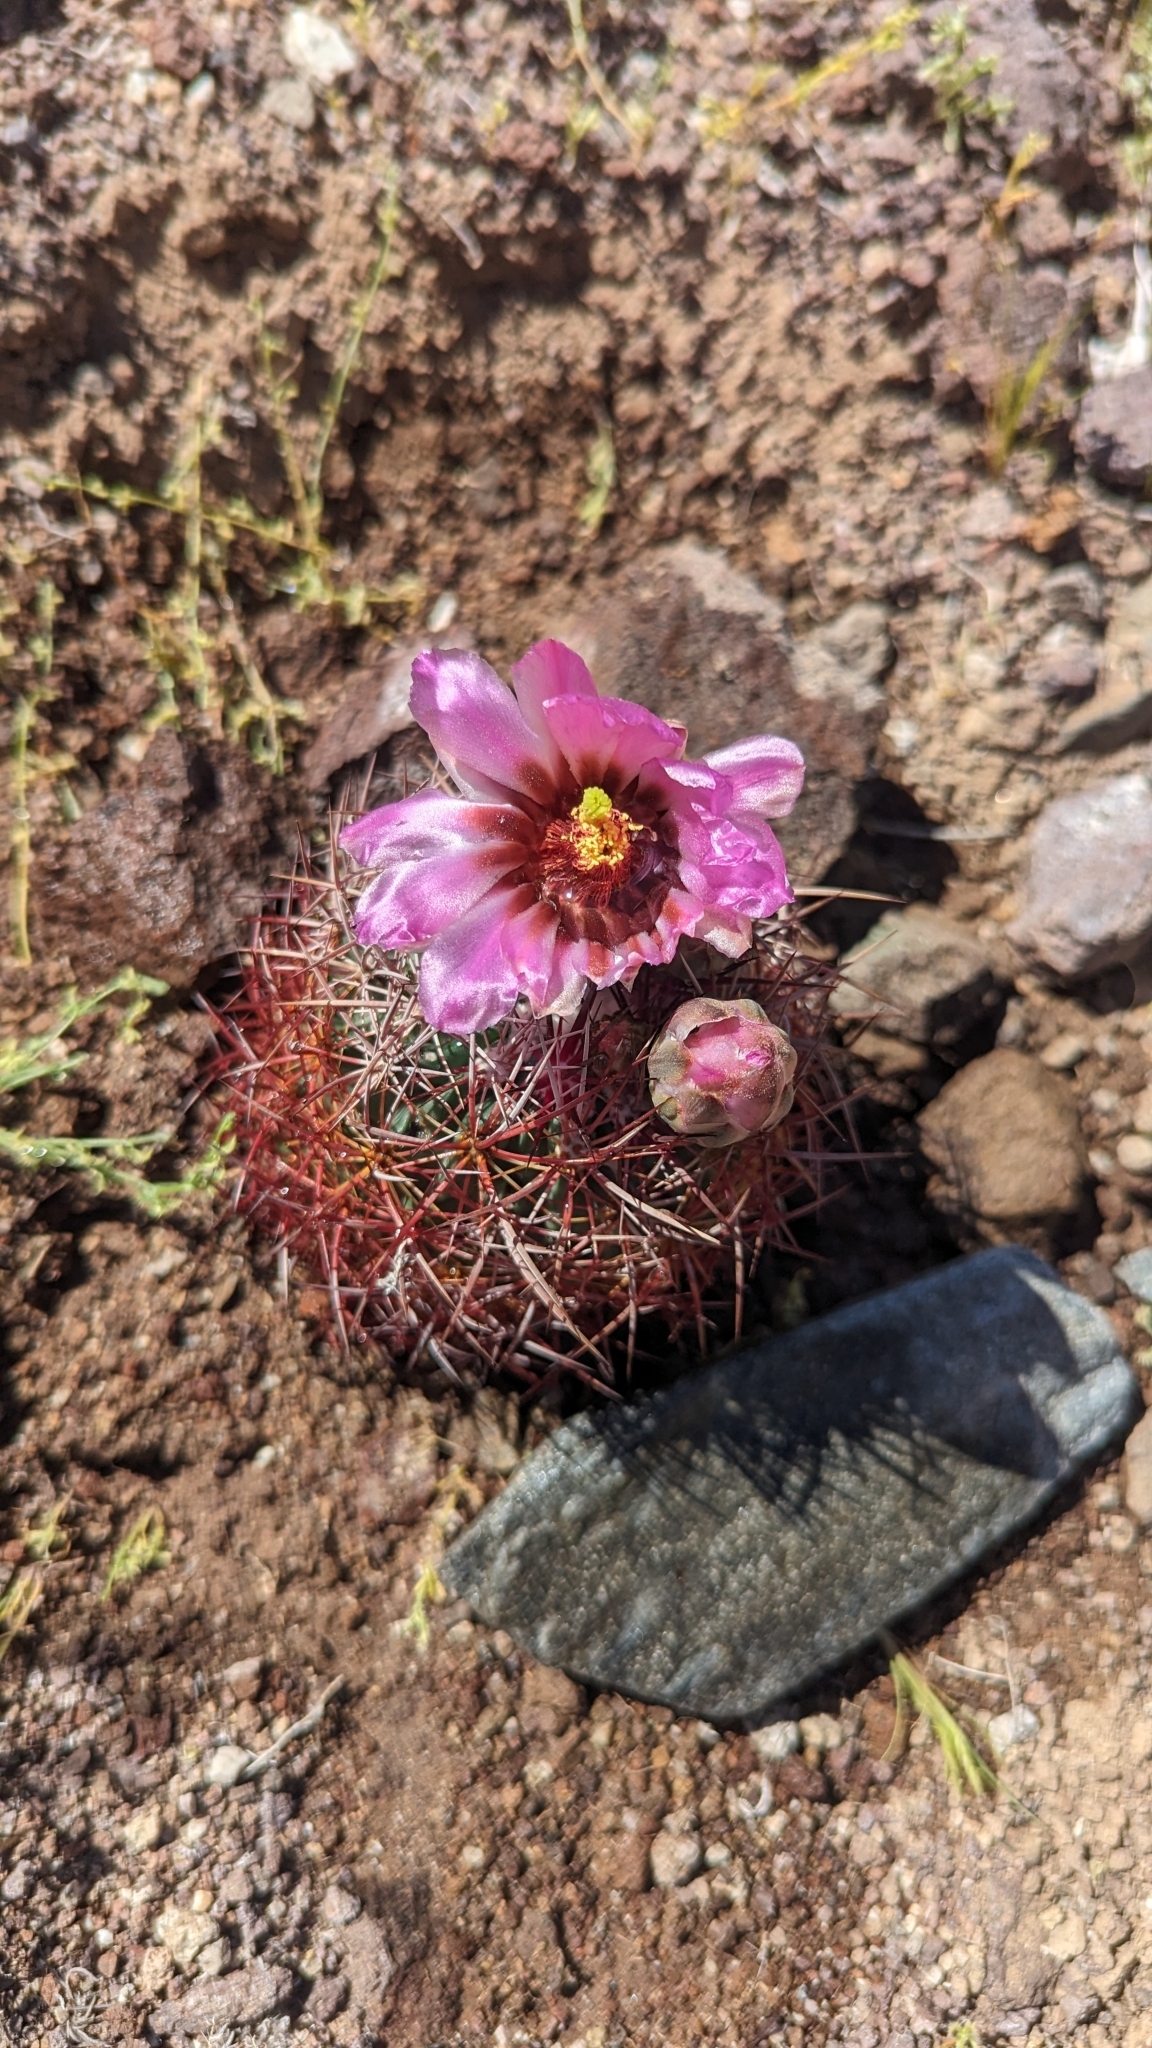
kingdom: Plantae
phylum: Tracheophyta
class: Magnoliopsida
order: Caryophyllales
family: Cactaceae
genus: Sclerocactus
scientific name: Sclerocactus johnsonii
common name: Eight-spine fishhook cactus
